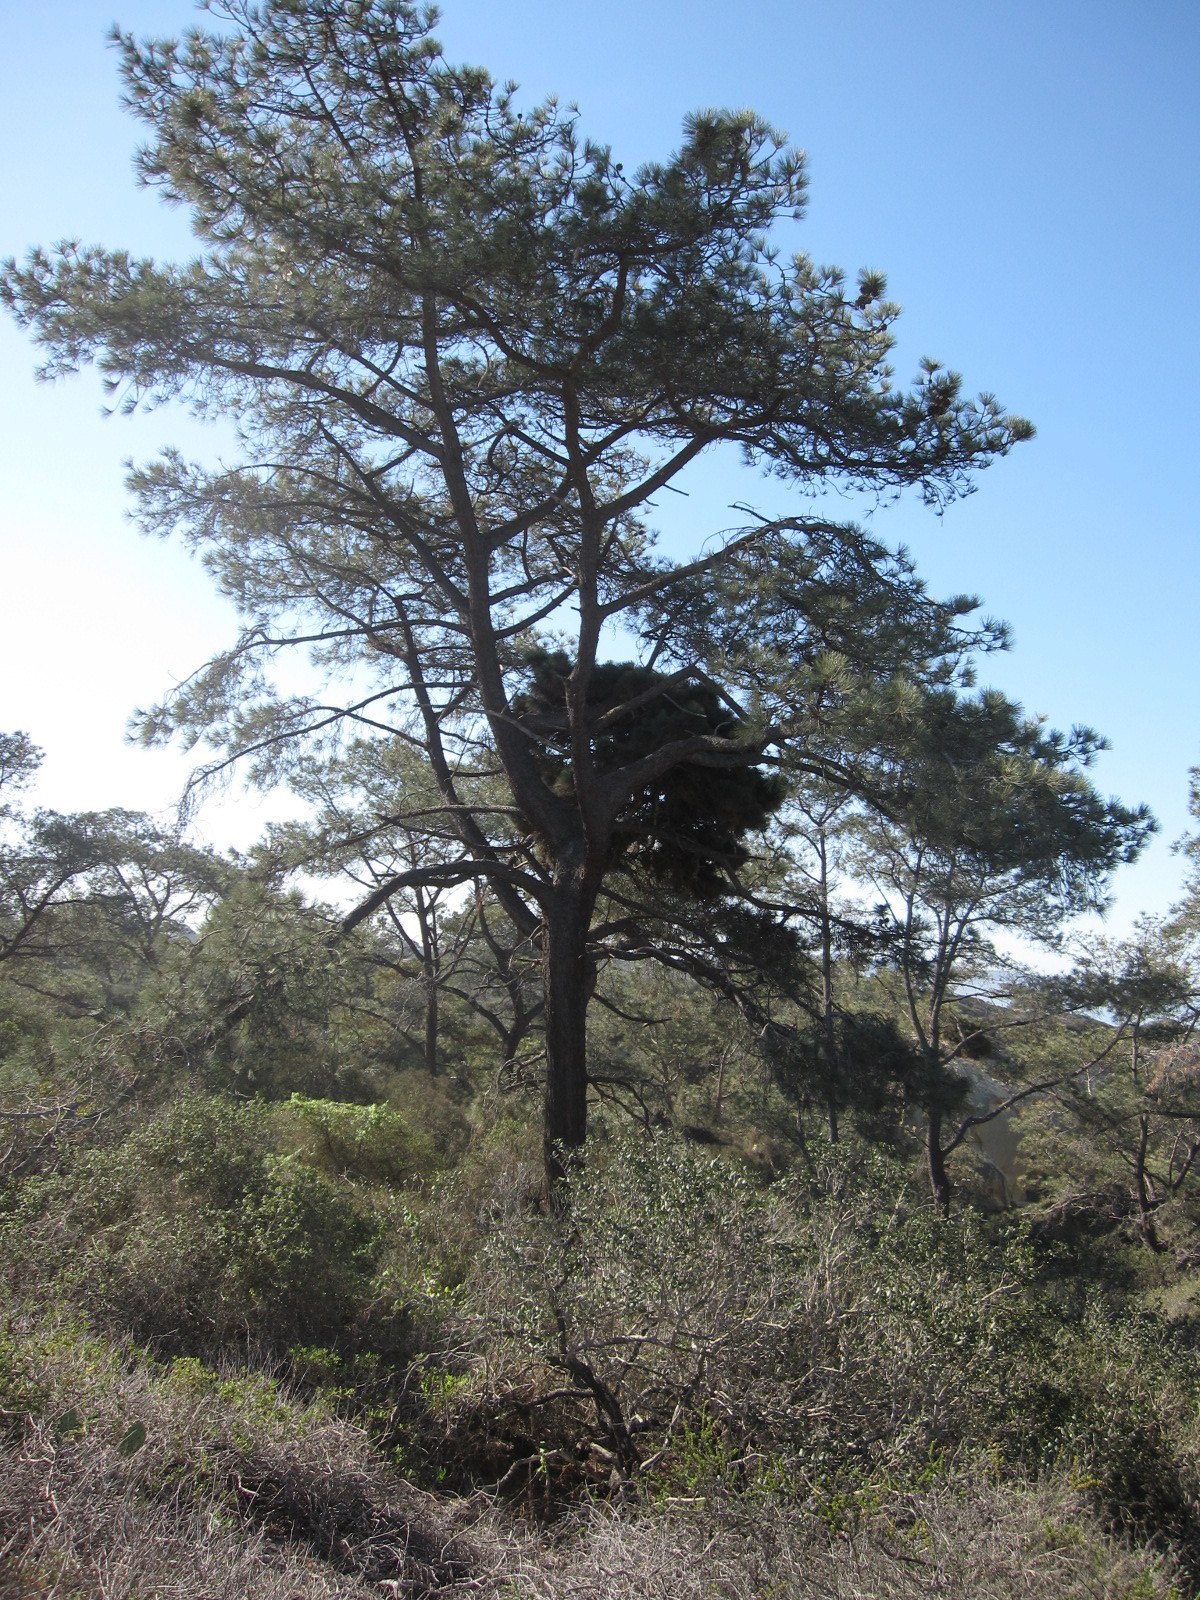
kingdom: Plantae
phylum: Tracheophyta
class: Pinopsida
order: Pinales
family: Pinaceae
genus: Pinus
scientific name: Pinus torreyana
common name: Torrey pine
